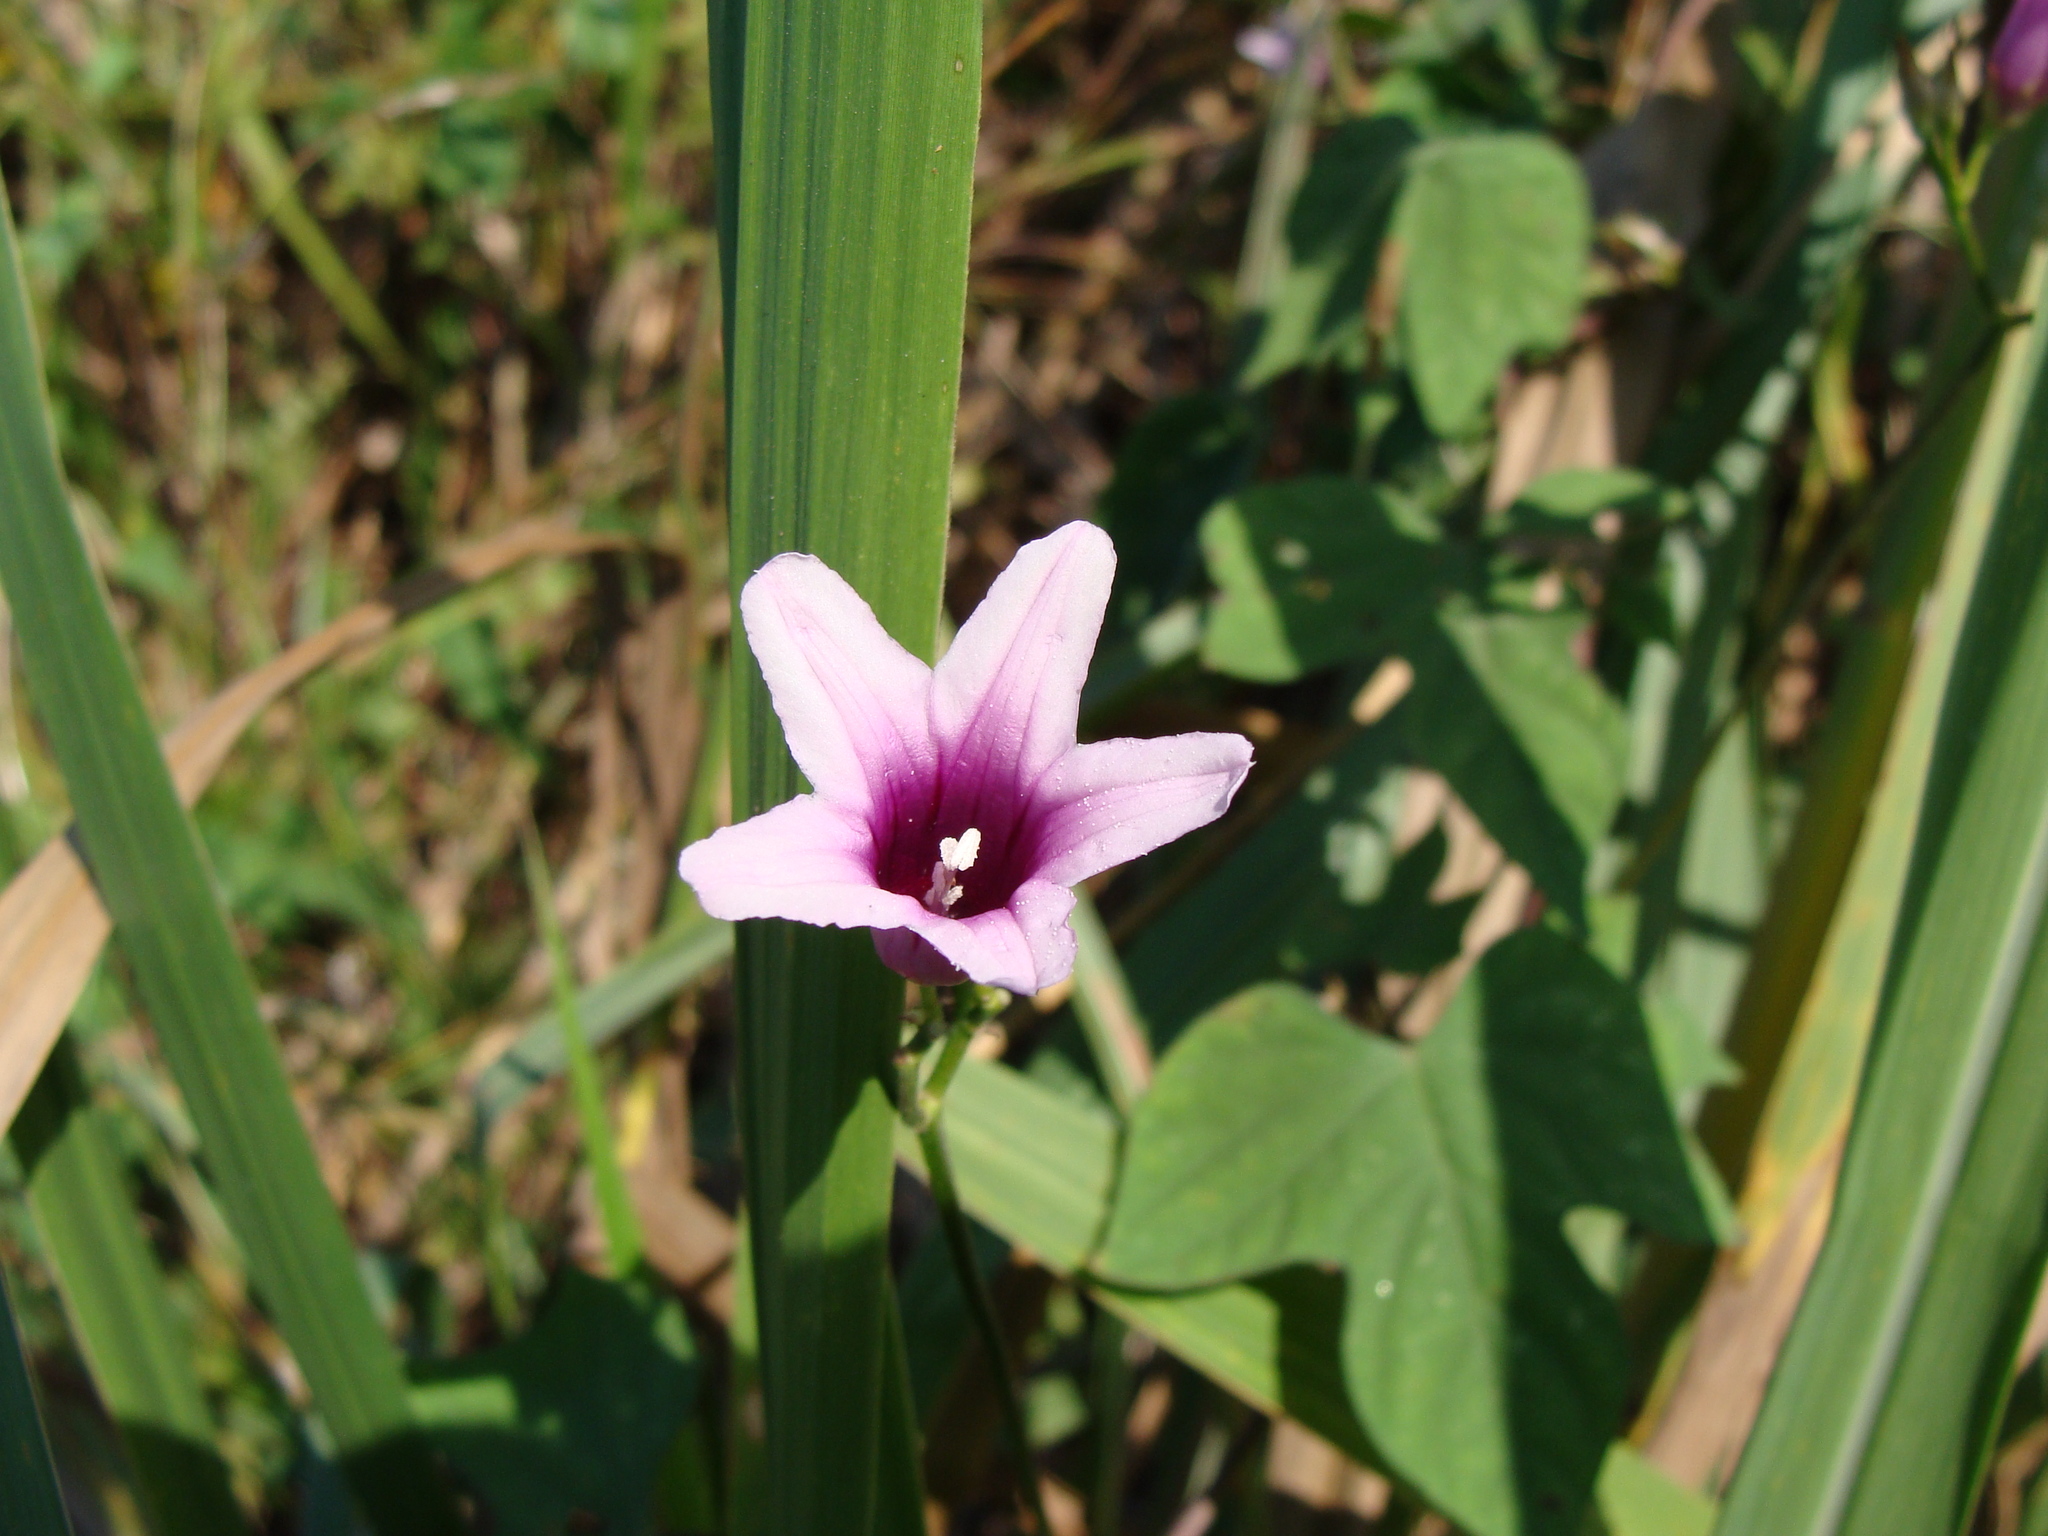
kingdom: Plantae
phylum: Tracheophyta
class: Magnoliopsida
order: Solanales
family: Convolvulaceae
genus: Ipomoea
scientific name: Ipomoea trifida
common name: Cotton morningglory
